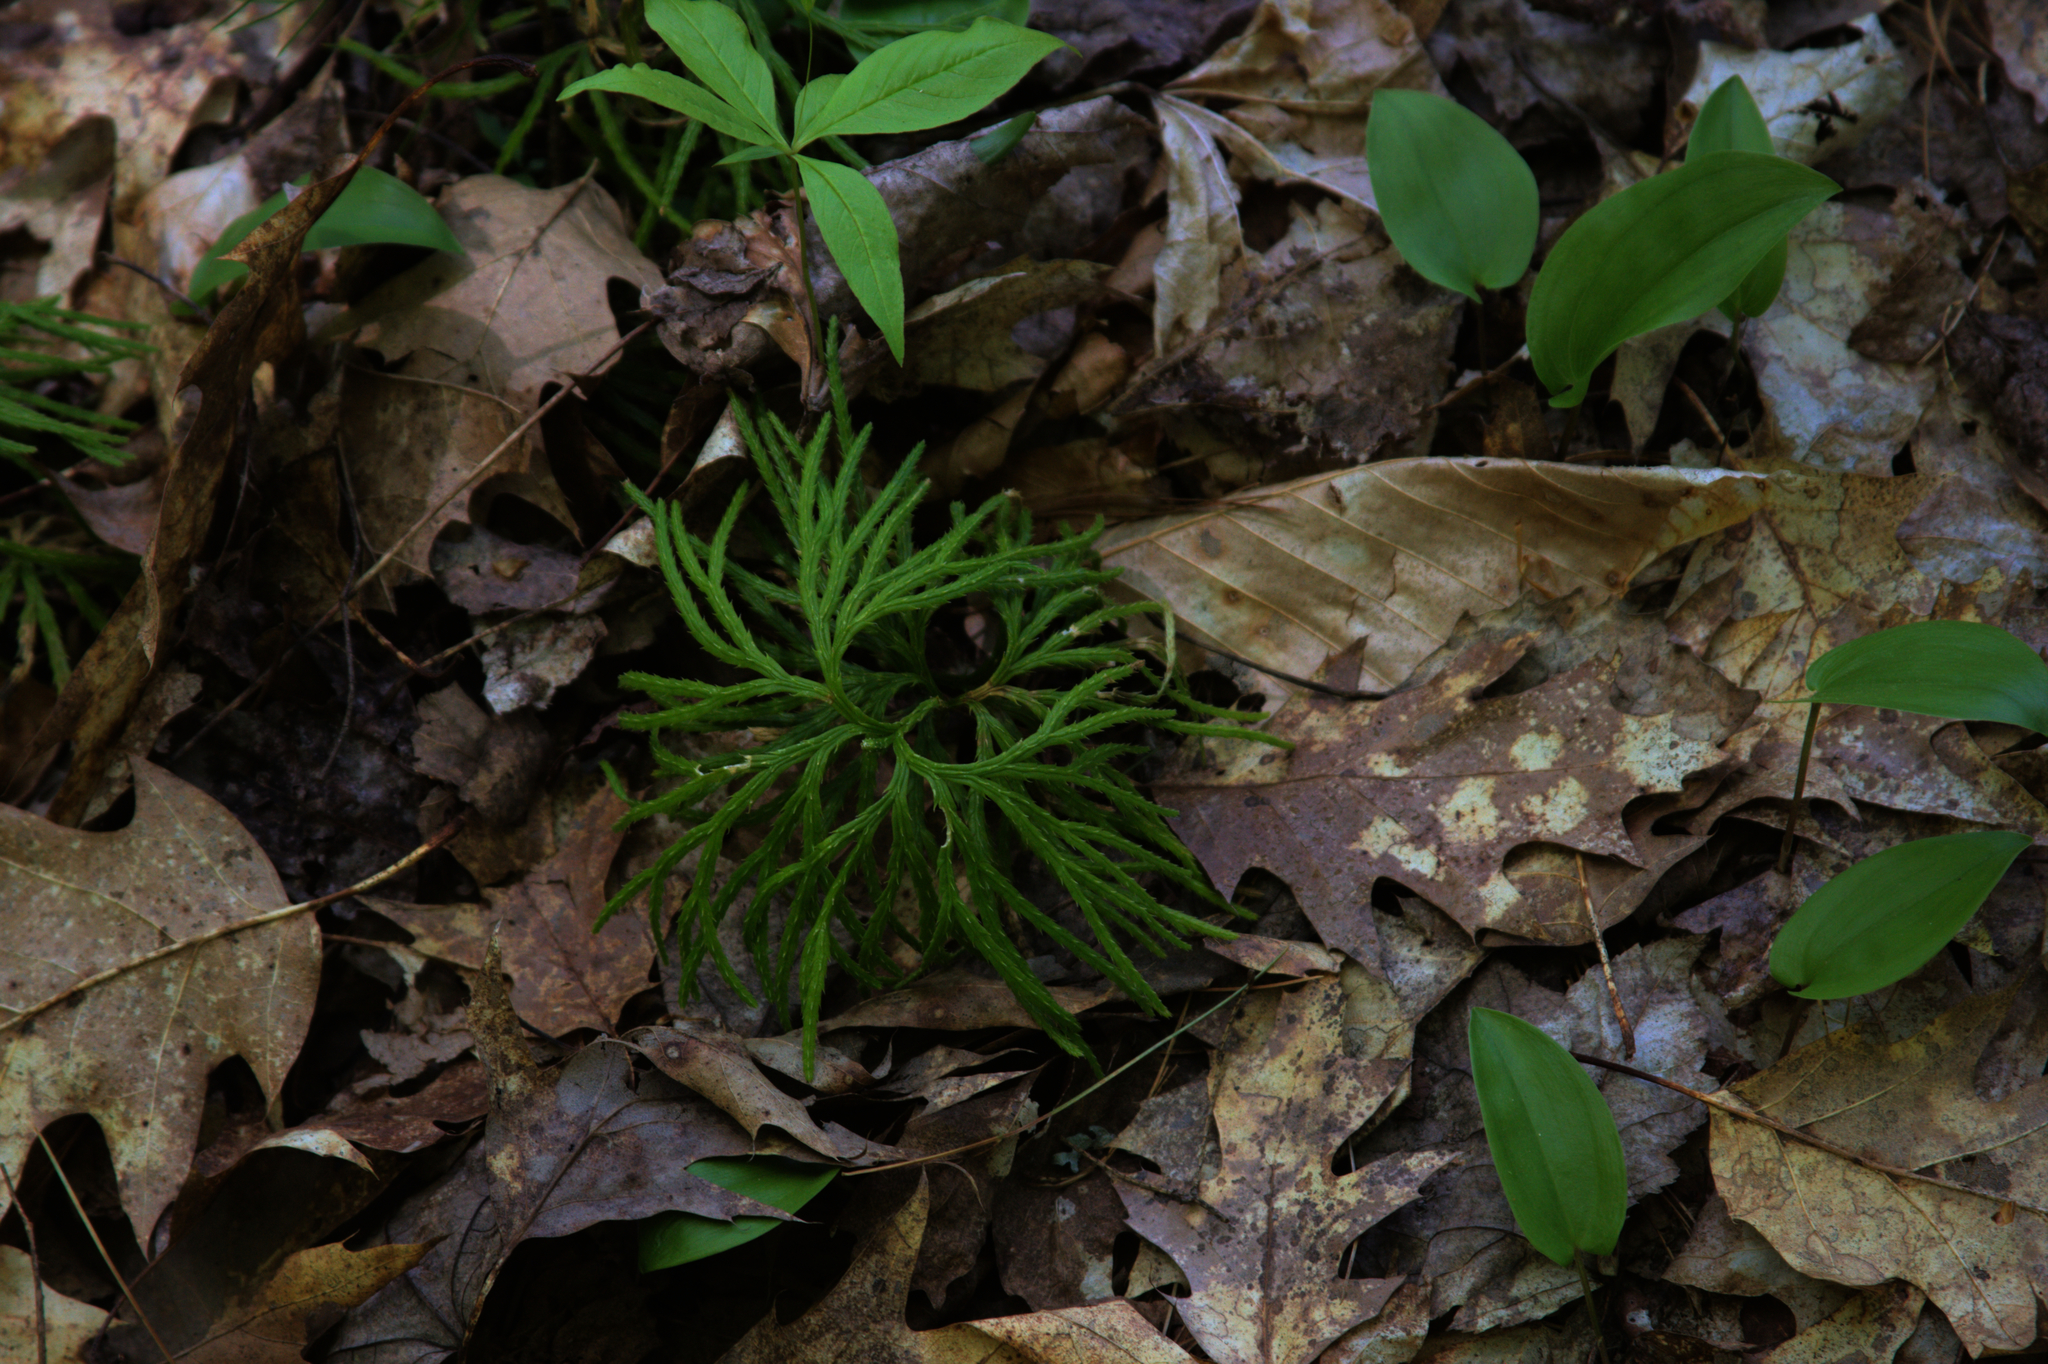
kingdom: Plantae
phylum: Tracheophyta
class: Lycopodiopsida
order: Lycopodiales
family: Lycopodiaceae
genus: Diphasiastrum
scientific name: Diphasiastrum digitatum
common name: Southern running-pine
